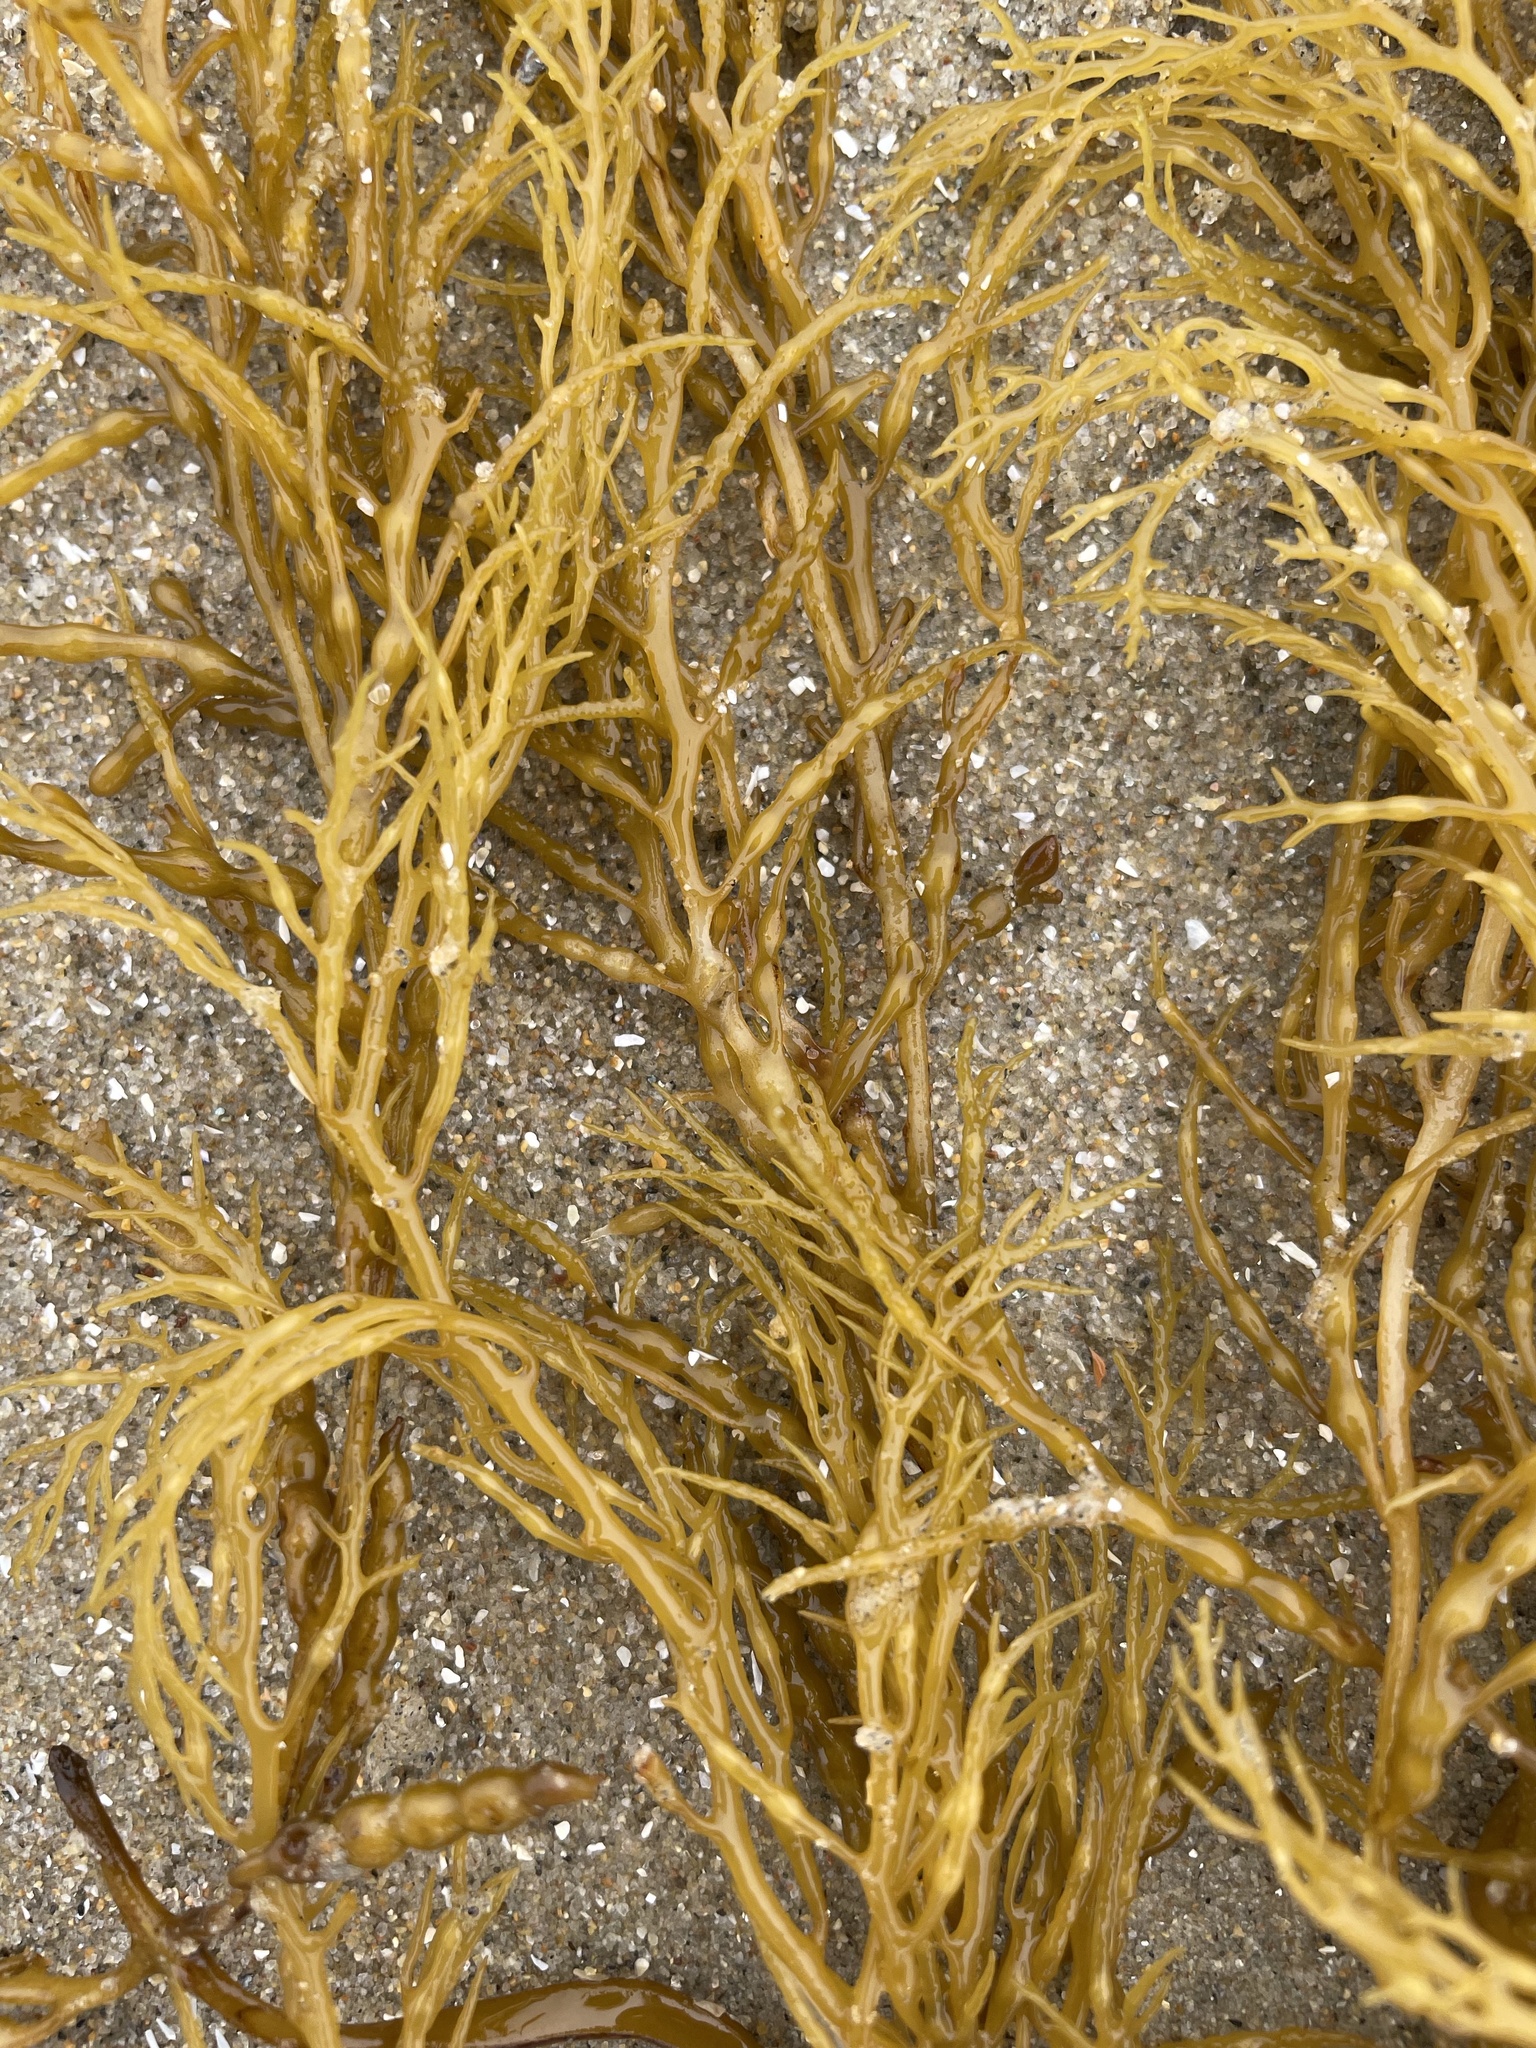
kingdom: Chromista
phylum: Ochrophyta
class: Phaeophyceae
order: Fucales
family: Sargassaceae
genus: Stephanocystis
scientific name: Stephanocystis
